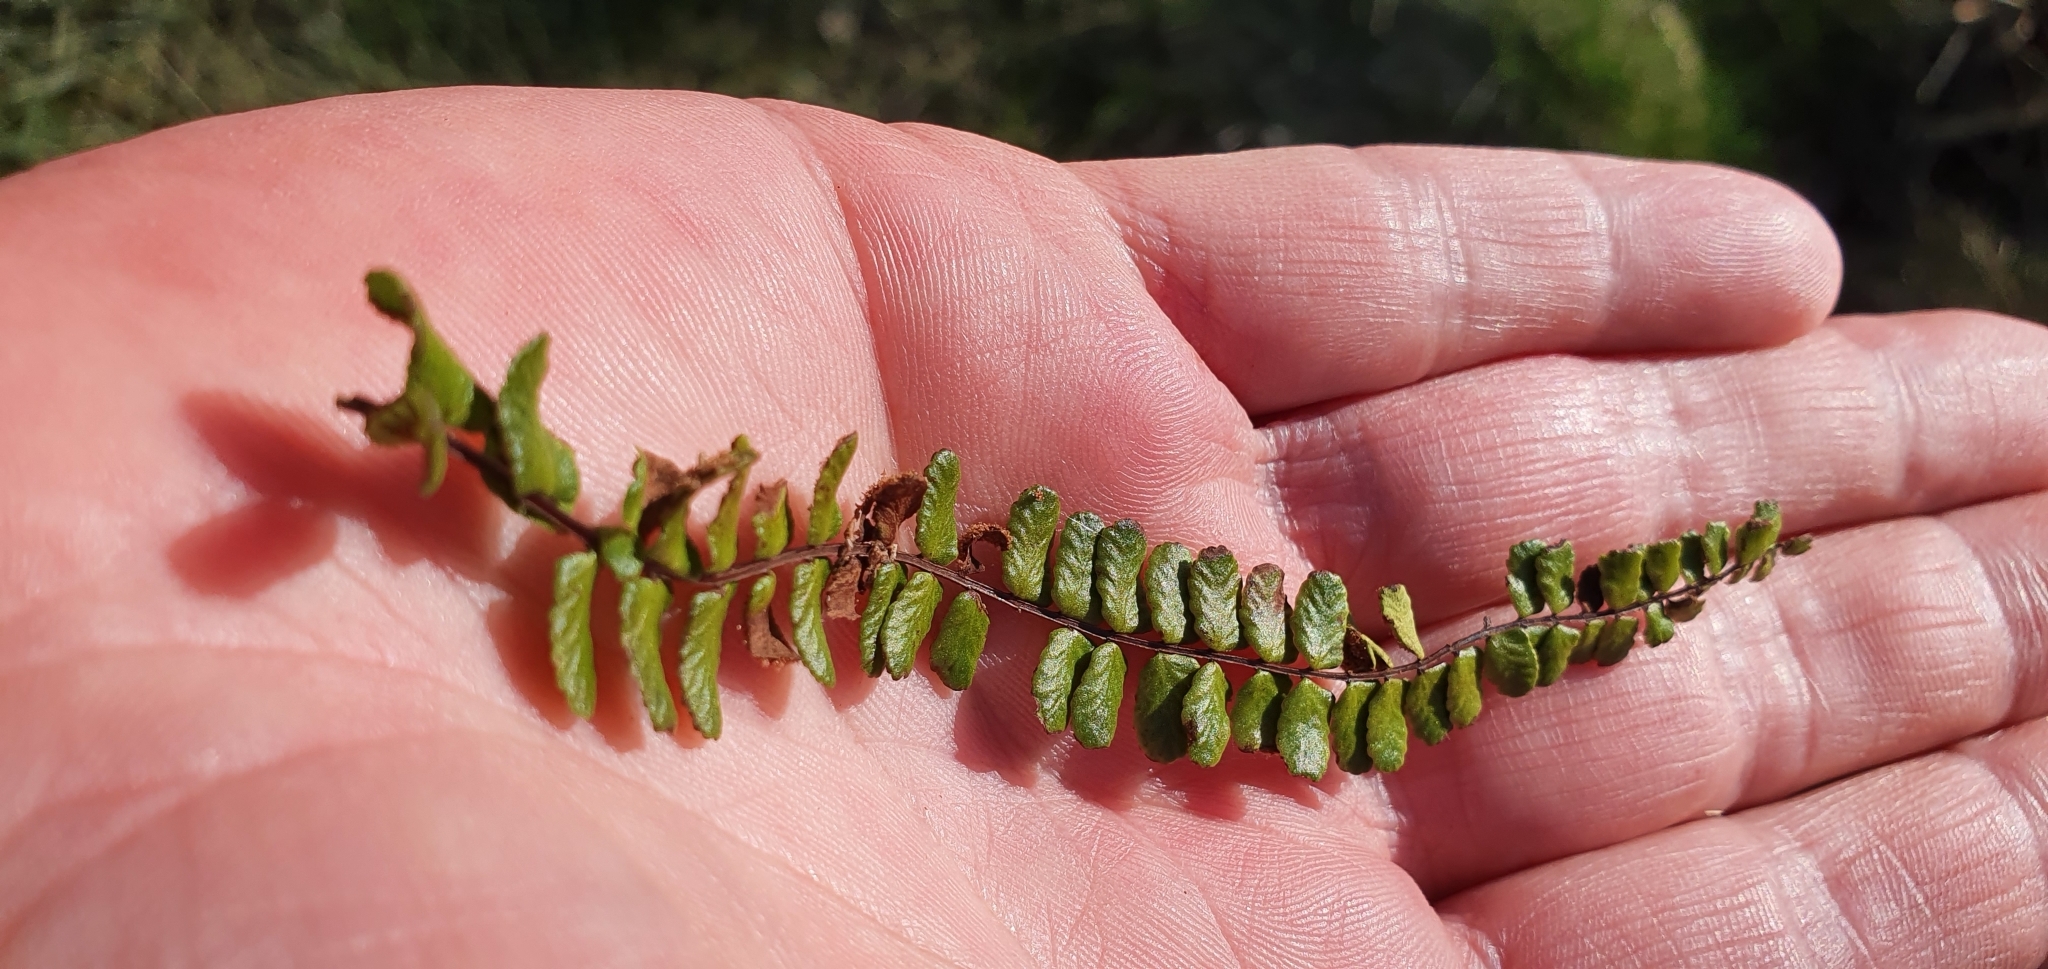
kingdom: Plantae
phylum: Tracheophyta
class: Polypodiopsida
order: Polypodiales
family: Aspleniaceae
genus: Asplenium
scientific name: Asplenium trichomanes
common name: Maidenhair spleenwort
